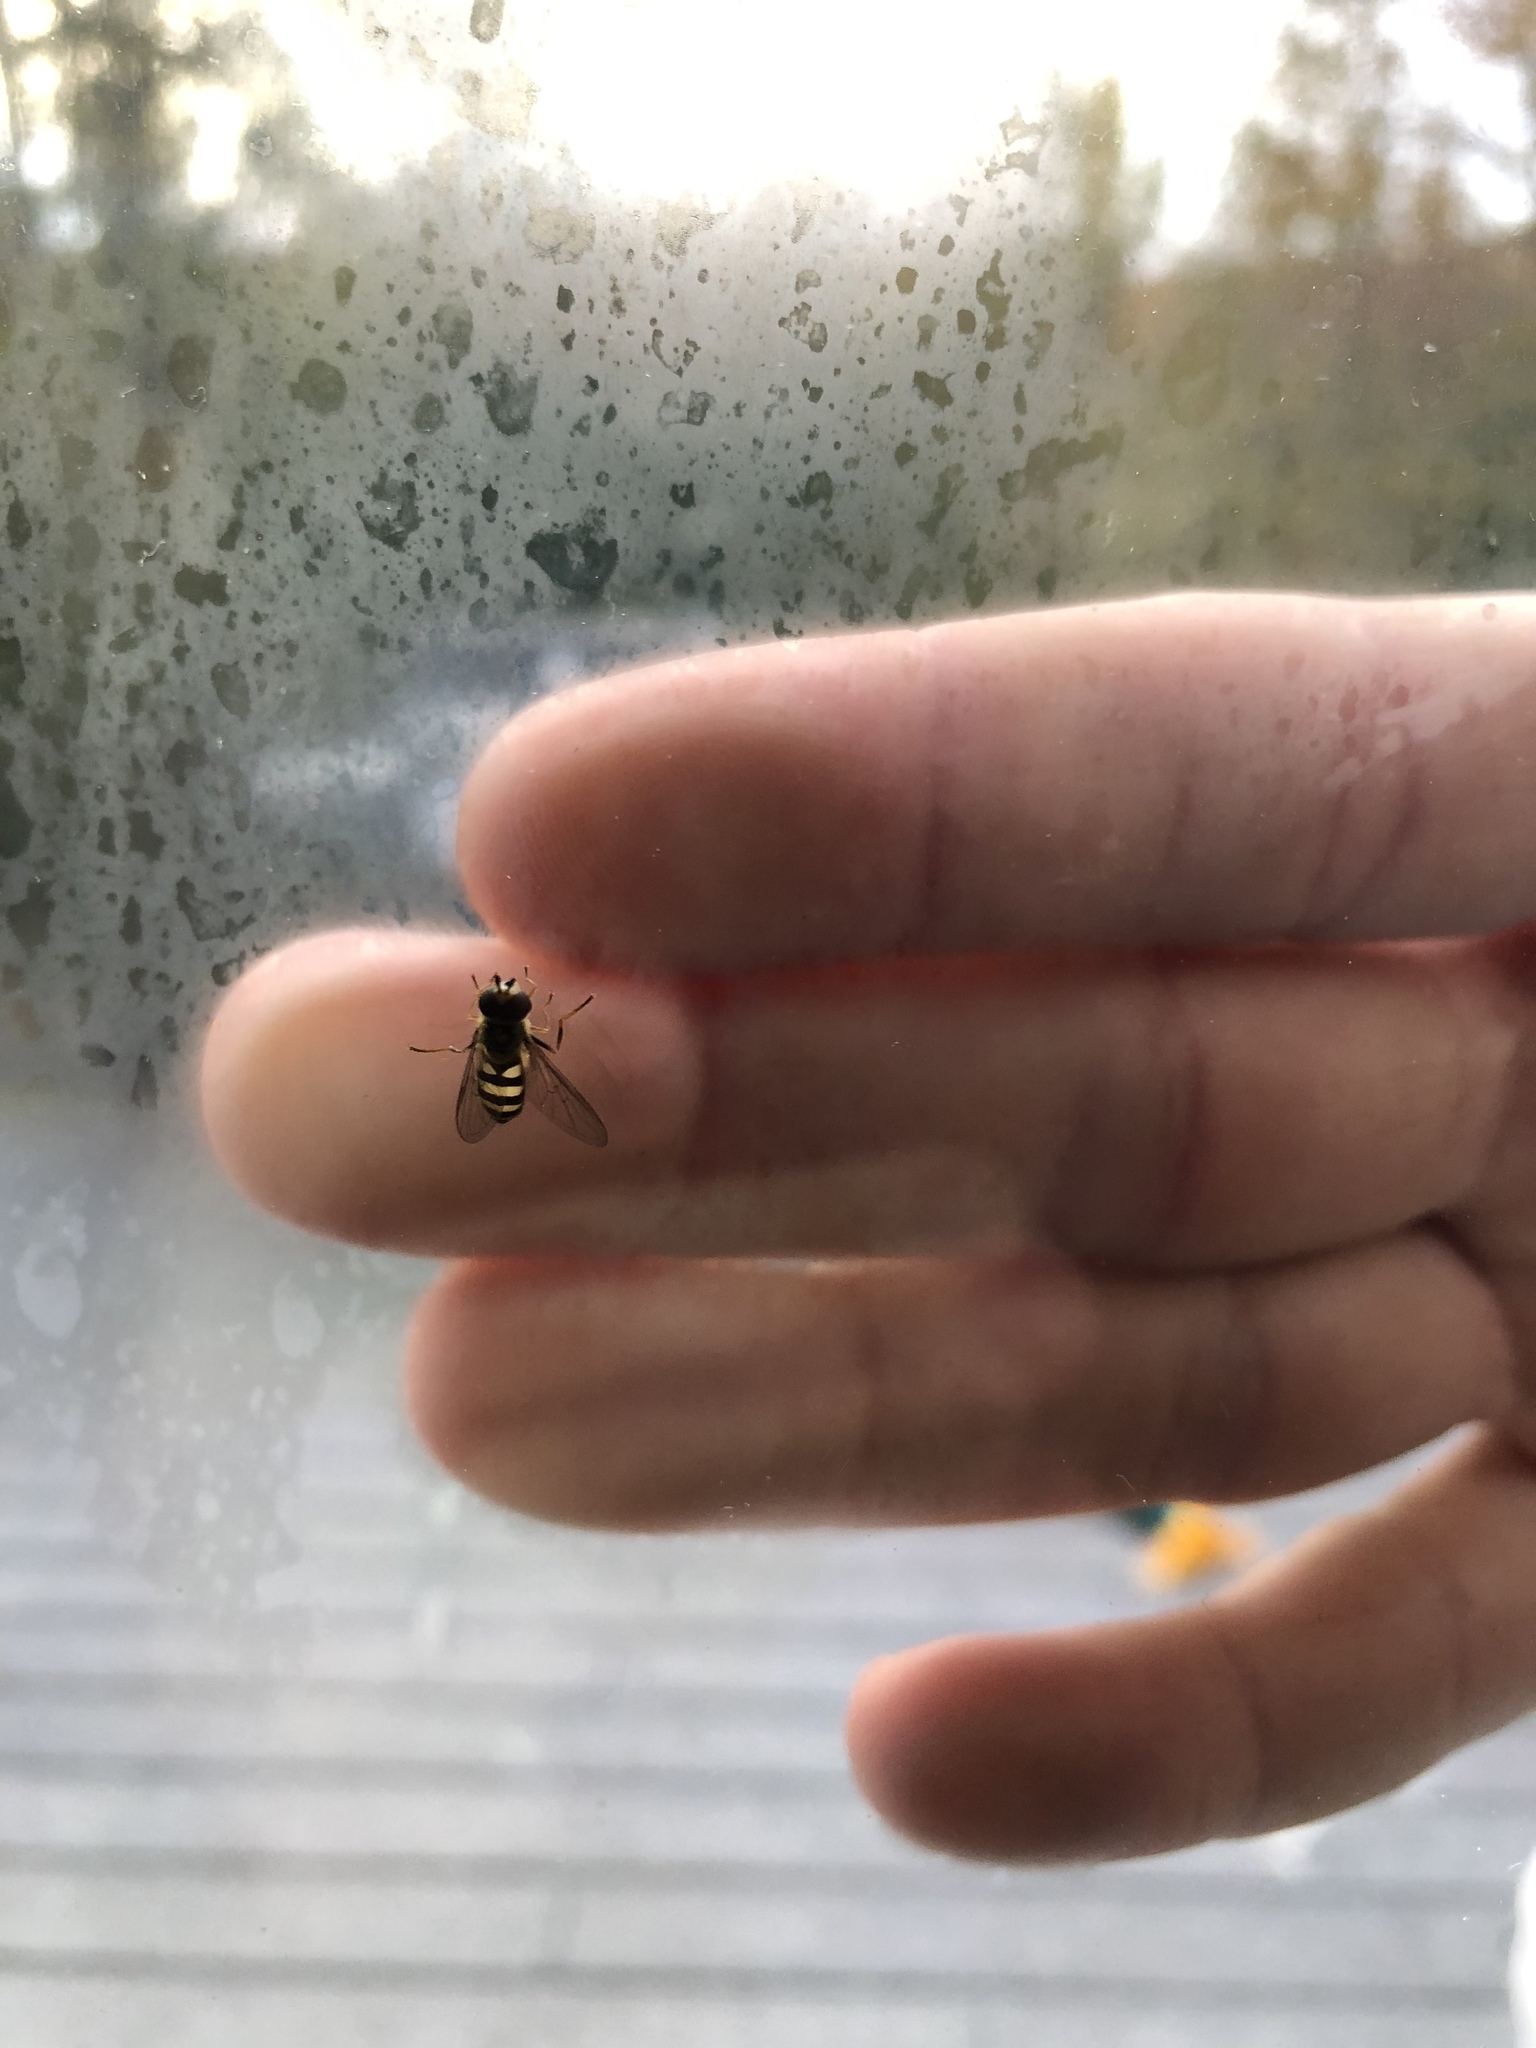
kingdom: Animalia
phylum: Arthropoda
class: Insecta
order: Diptera
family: Syrphidae
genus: Eupeodes
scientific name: Eupeodes
